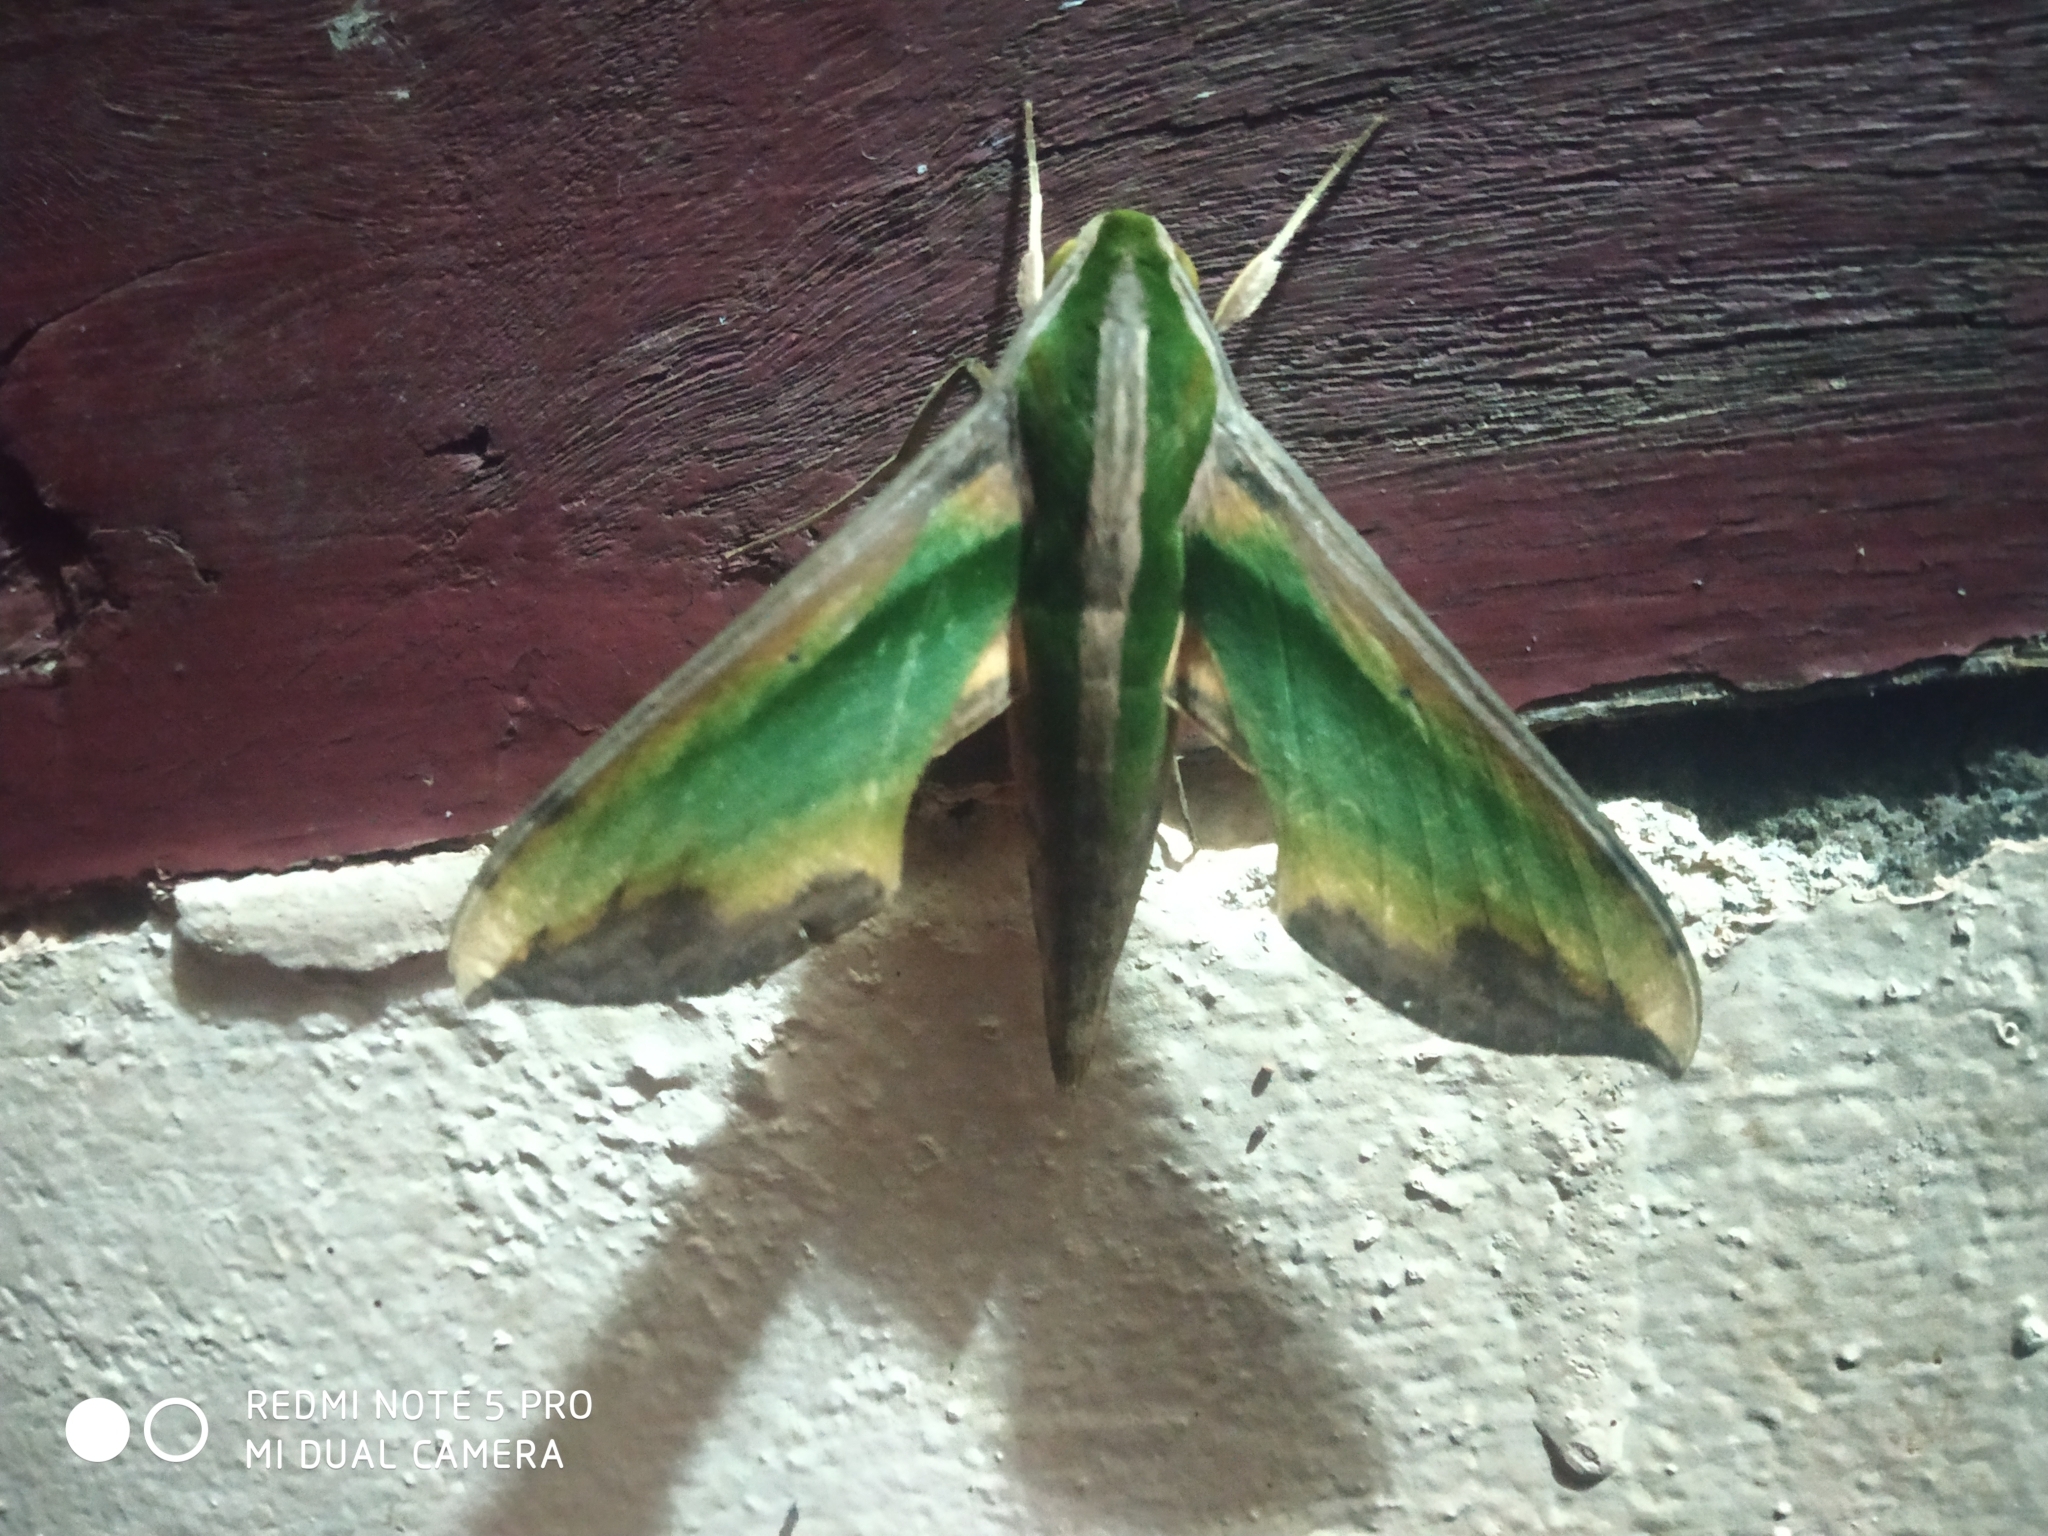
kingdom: Animalia
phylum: Arthropoda
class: Insecta
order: Lepidoptera
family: Sphingidae
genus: Pergesa
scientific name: Pergesa acteus
